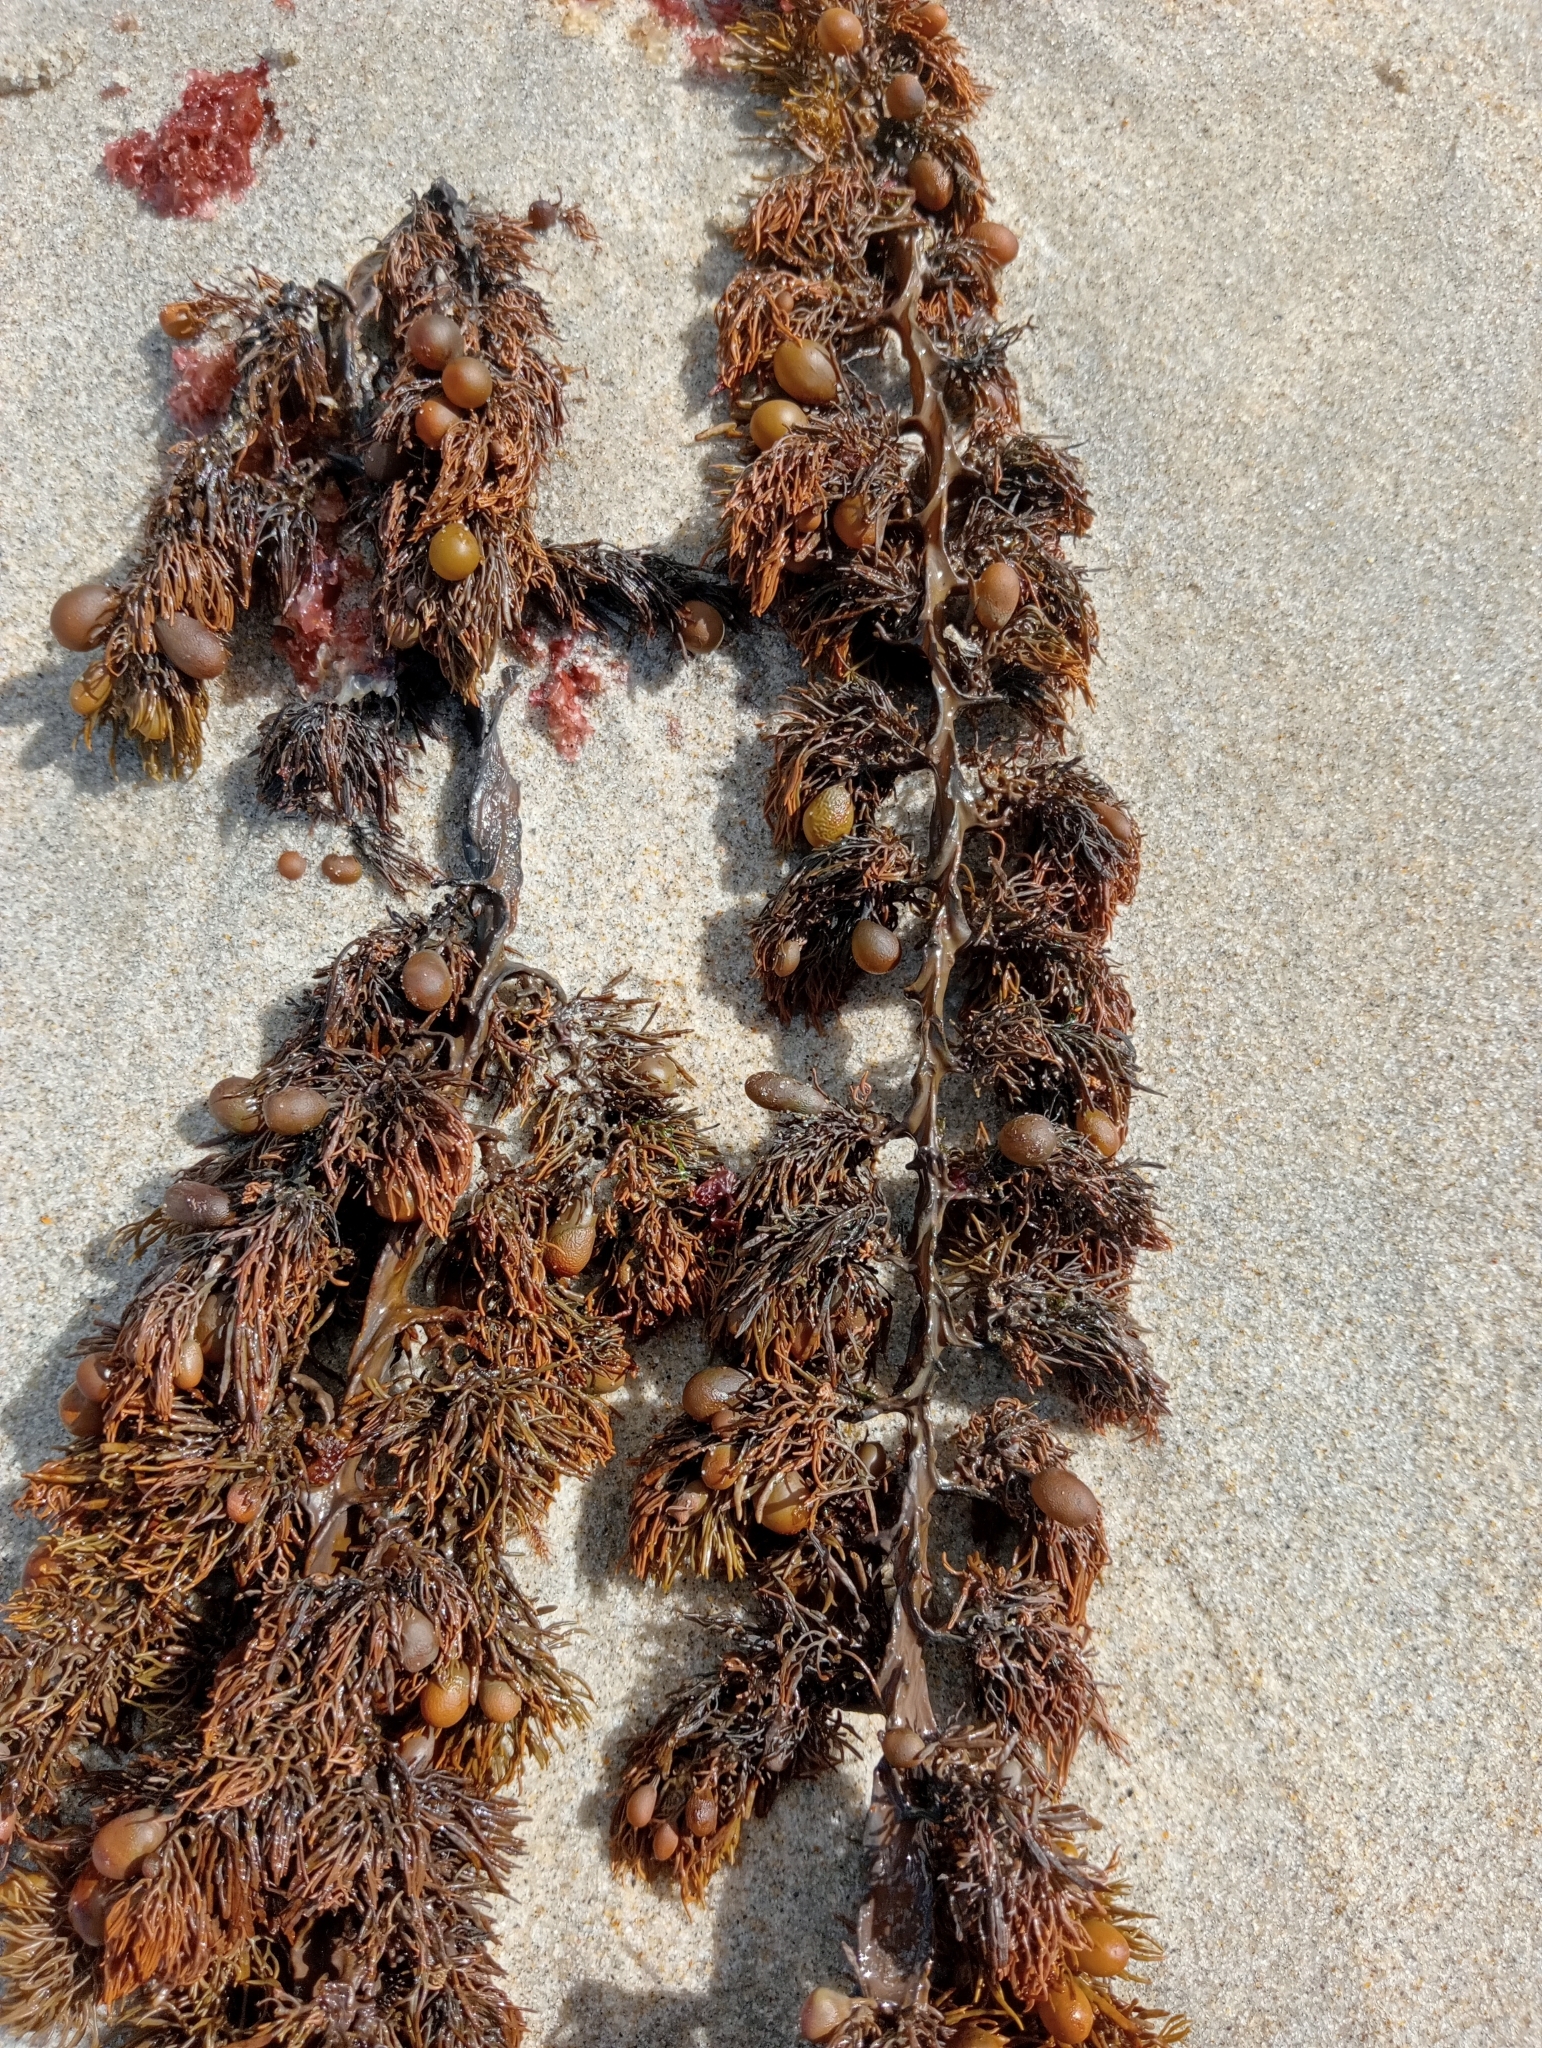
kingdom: Chromista
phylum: Ochrophyta
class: Phaeophyceae
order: Fucales
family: Sargassaceae
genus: Cystophora
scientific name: Cystophora scalaris
